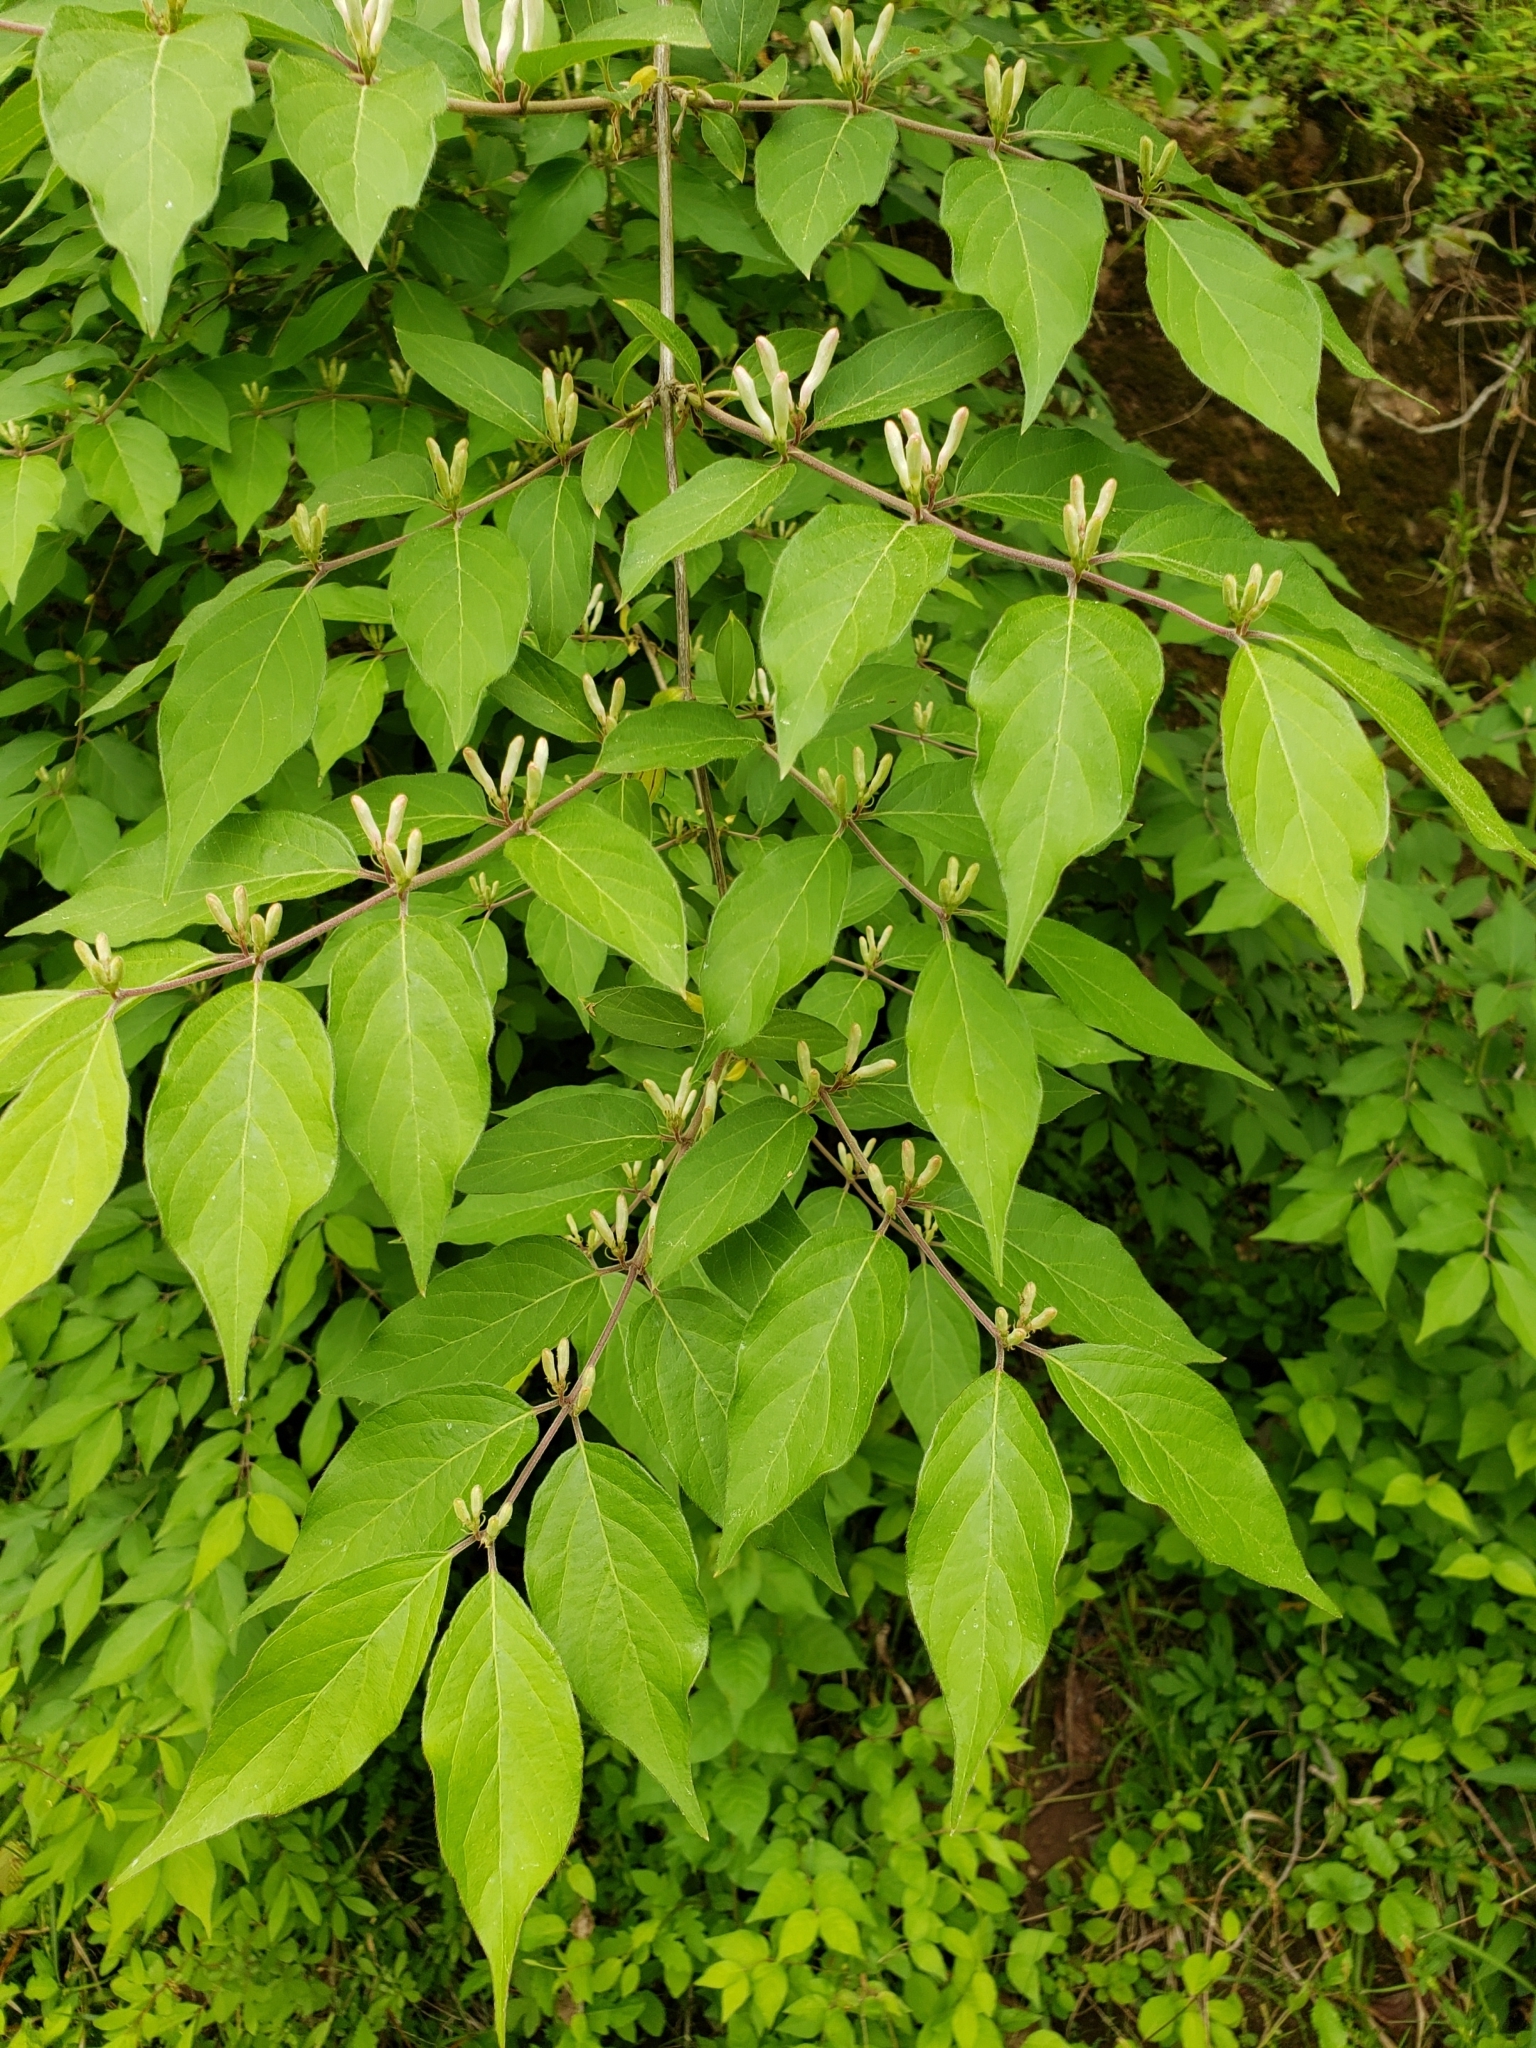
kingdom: Plantae
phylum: Tracheophyta
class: Magnoliopsida
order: Dipsacales
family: Caprifoliaceae
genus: Lonicera
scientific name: Lonicera maackii
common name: Amur honeysuckle
